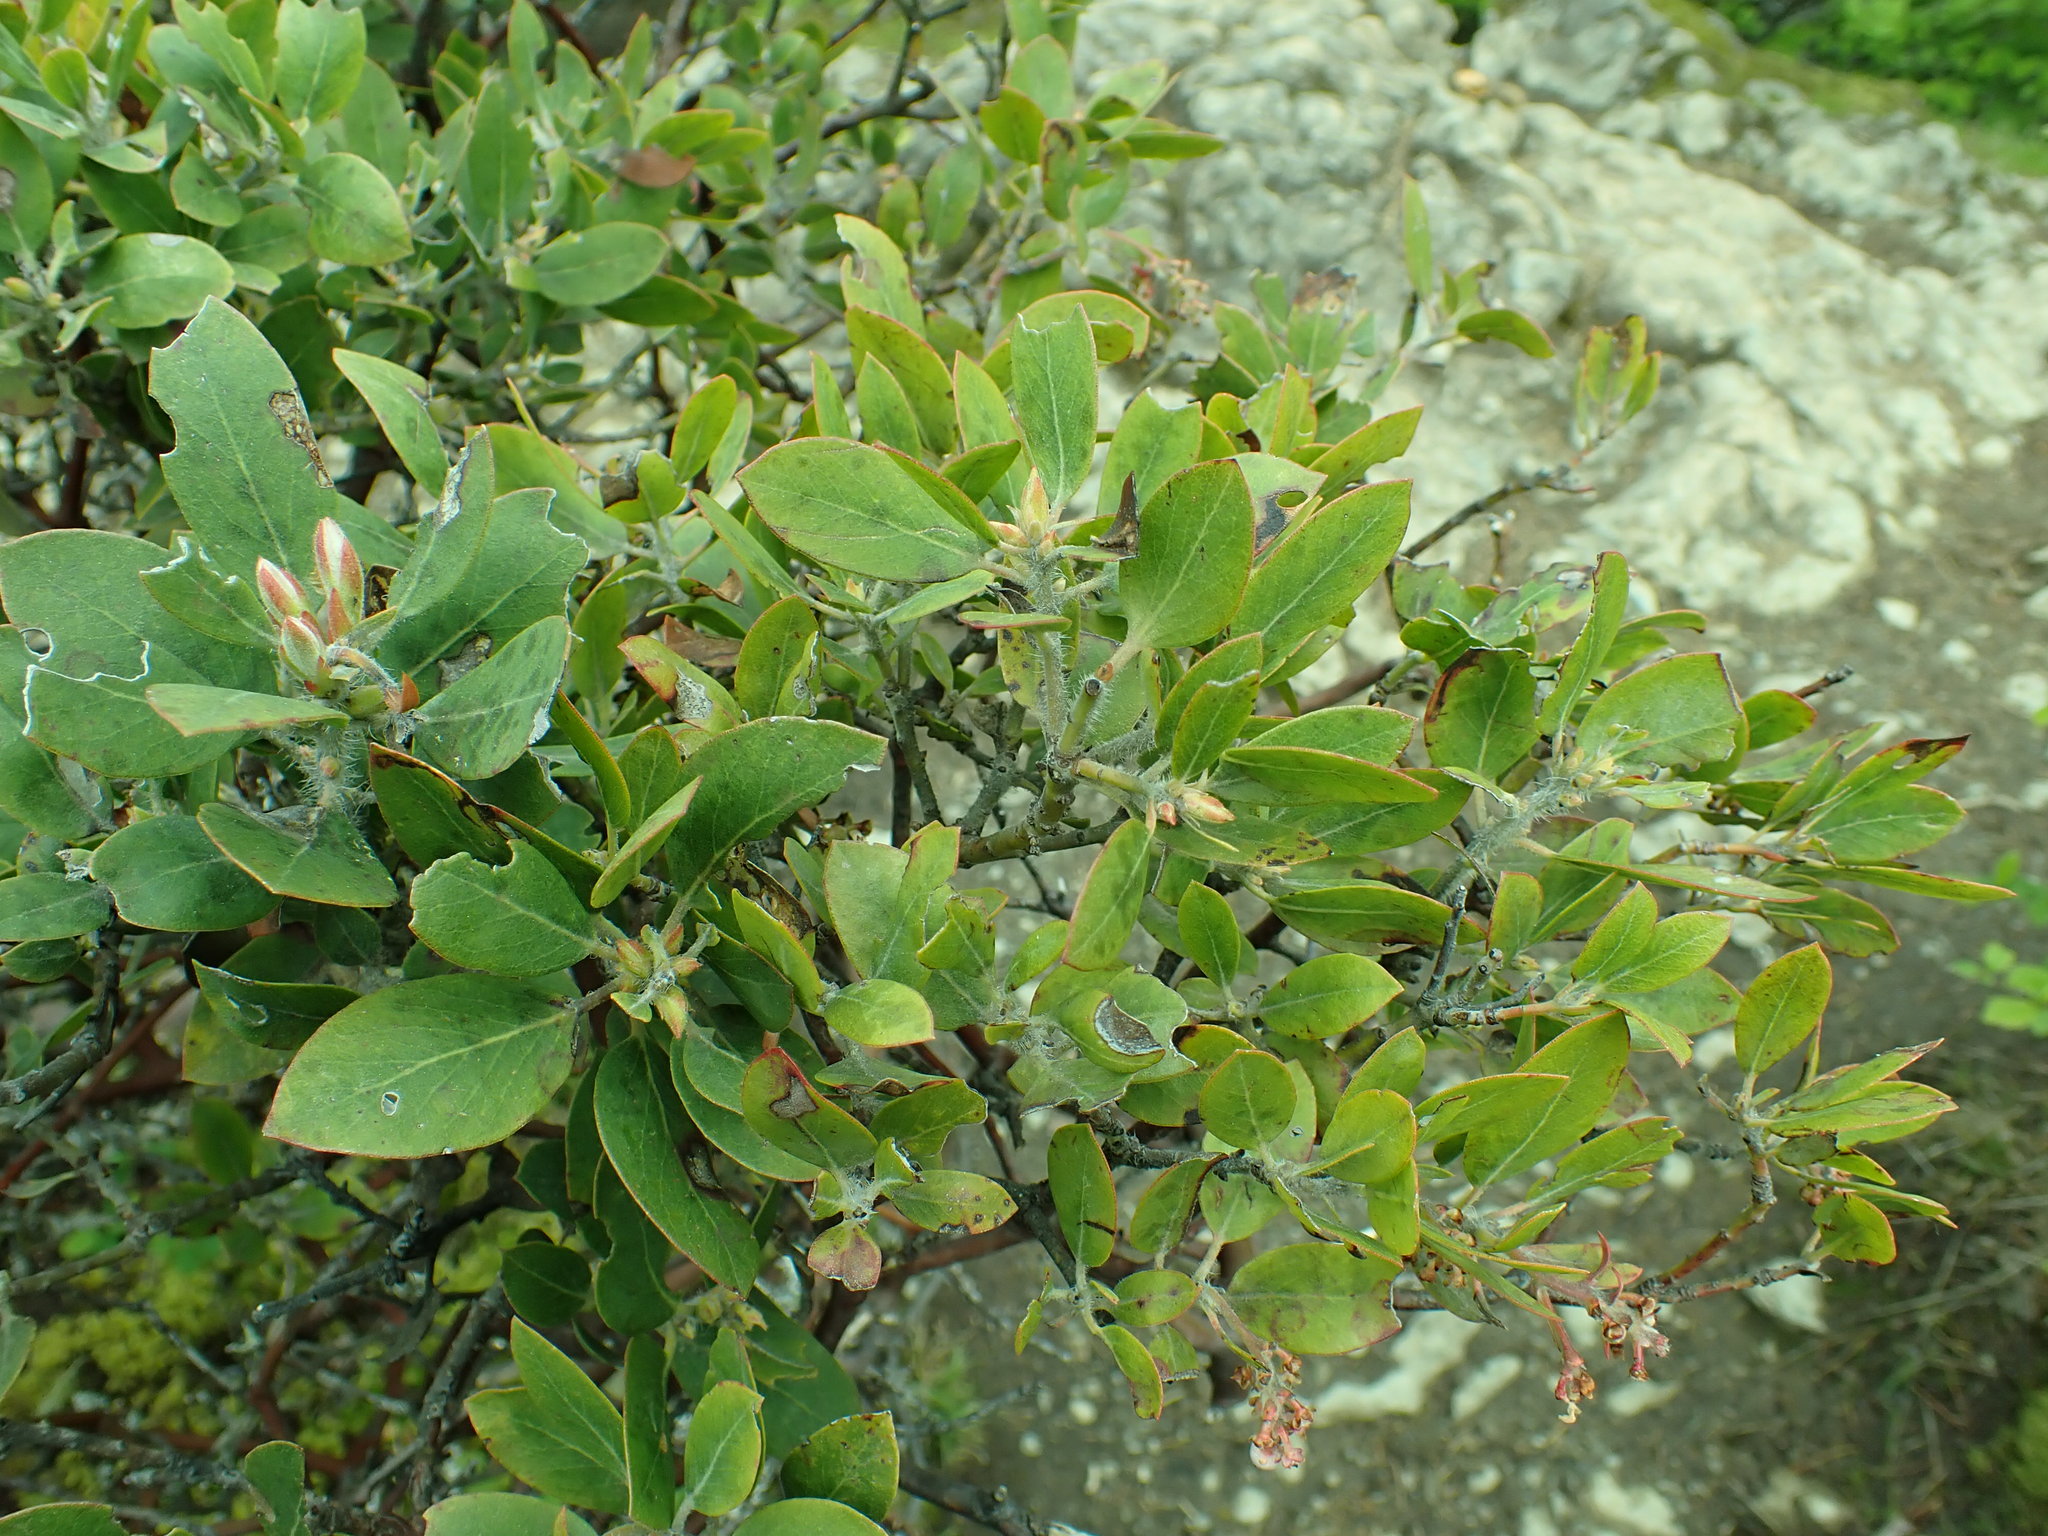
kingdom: Plantae
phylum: Tracheophyta
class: Magnoliopsida
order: Ericales
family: Ericaceae
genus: Arctostaphylos
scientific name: Arctostaphylos columbiana
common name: Bristly bearberry
